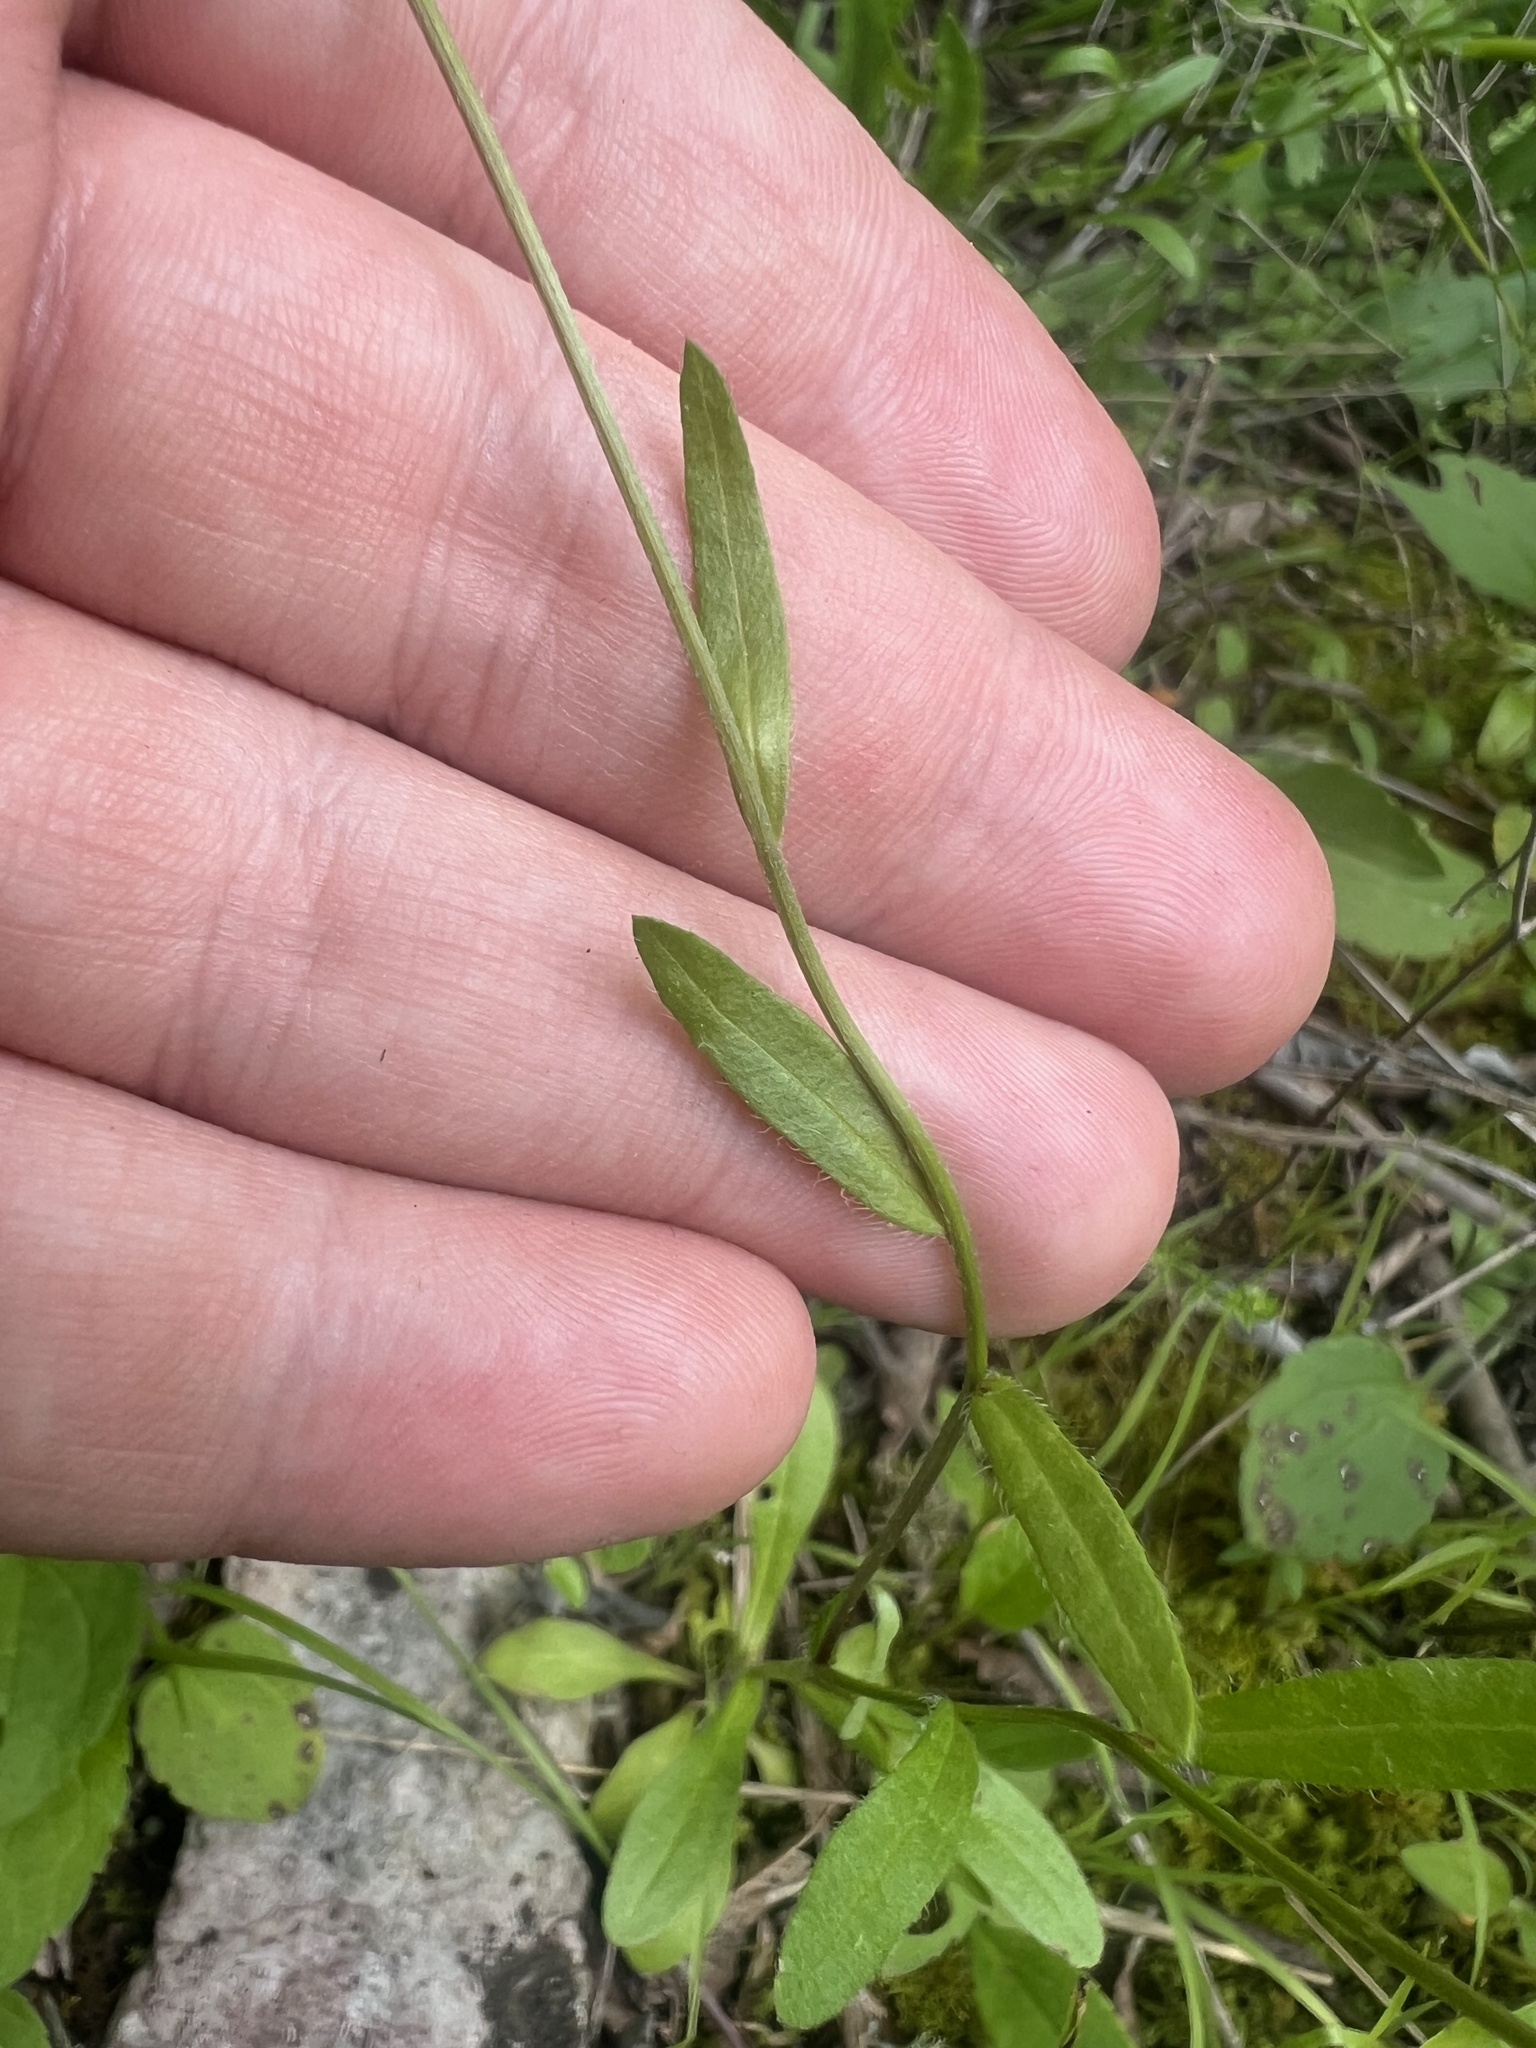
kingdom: Plantae
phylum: Tracheophyta
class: Magnoliopsida
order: Asterales
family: Asteraceae
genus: Astranthium
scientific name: Astranthium integrifolium
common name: Western daisy
